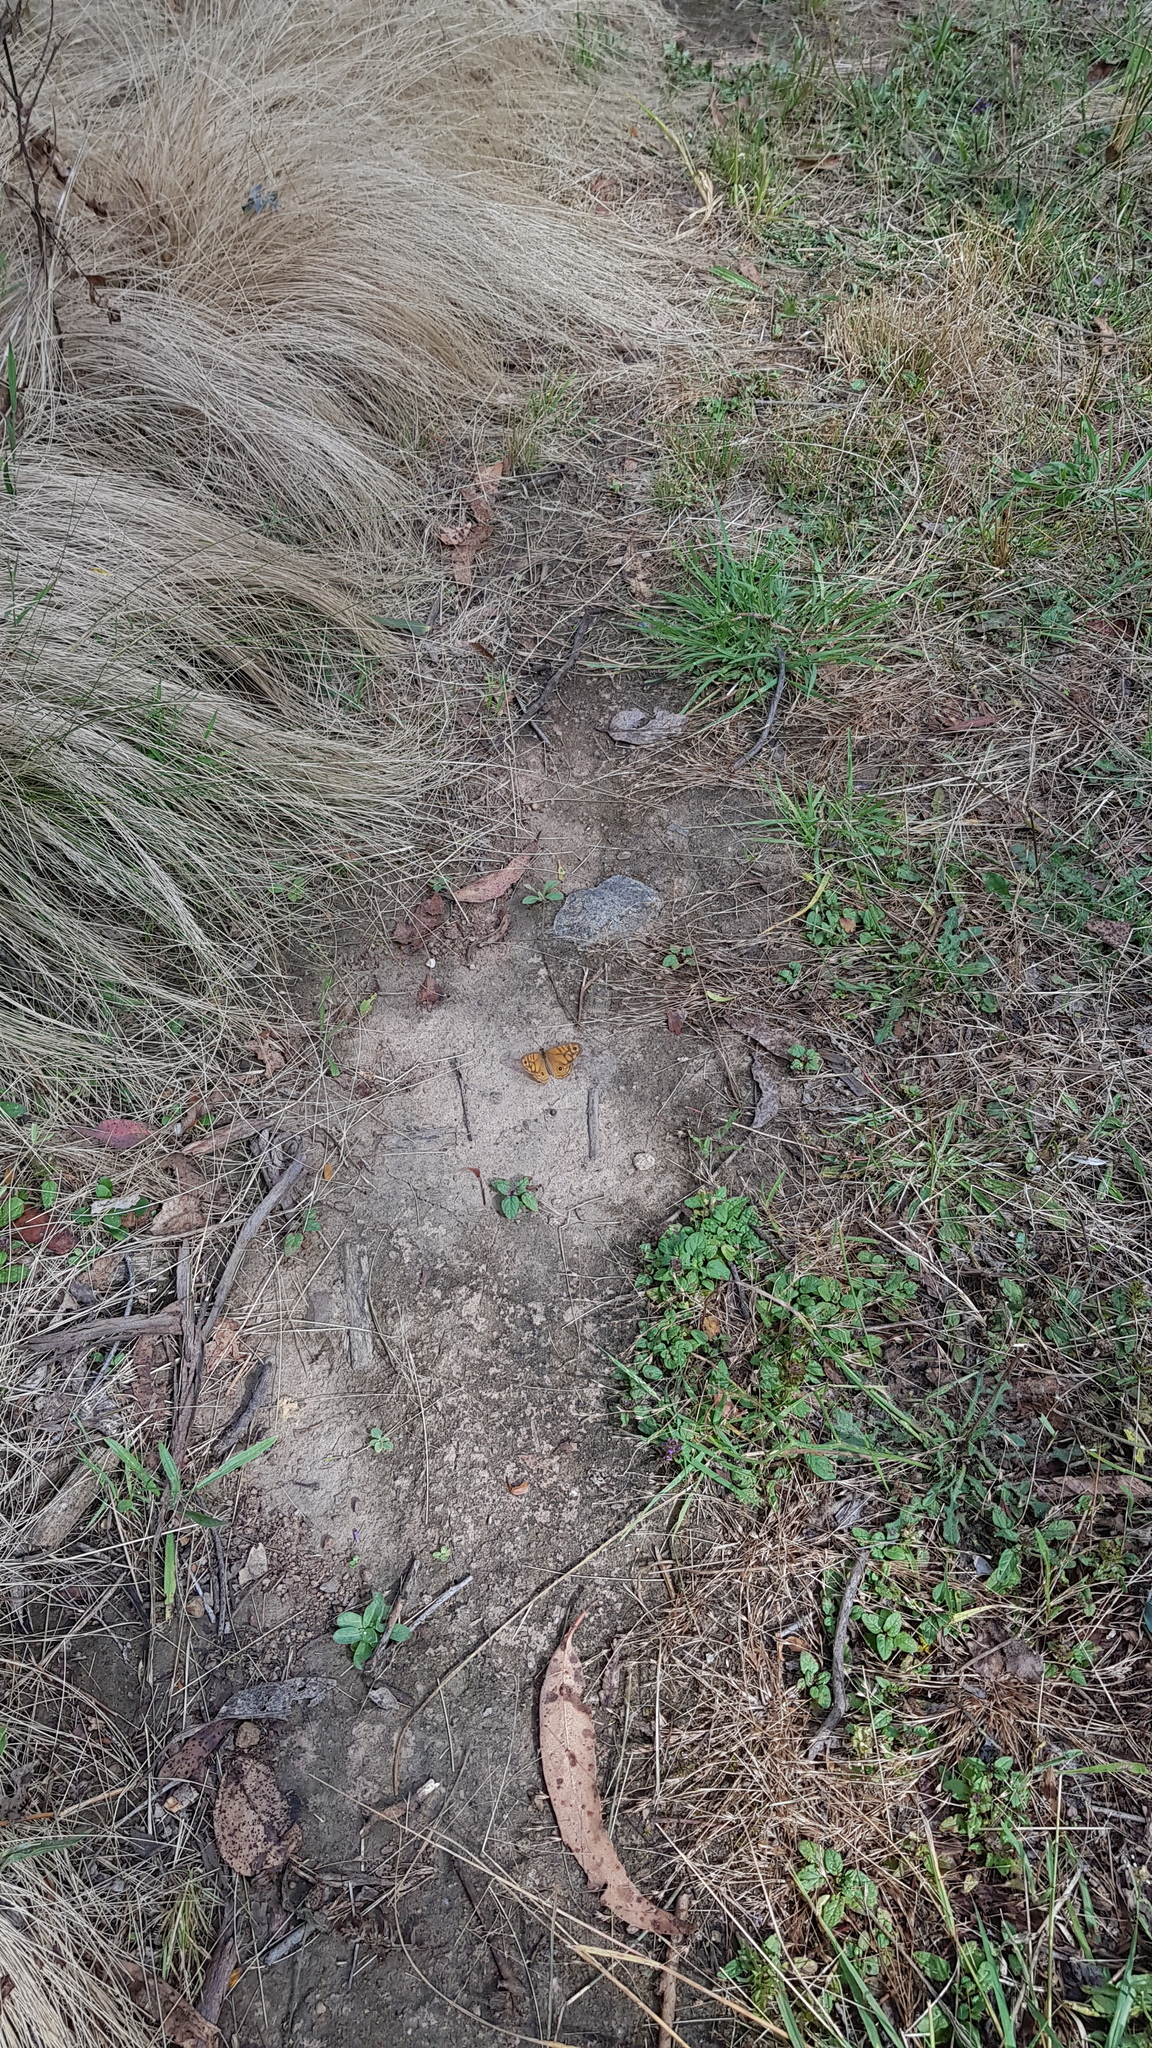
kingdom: Animalia
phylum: Arthropoda
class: Insecta
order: Lepidoptera
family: Nymphalidae
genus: Geitoneura
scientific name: Geitoneura acantha
